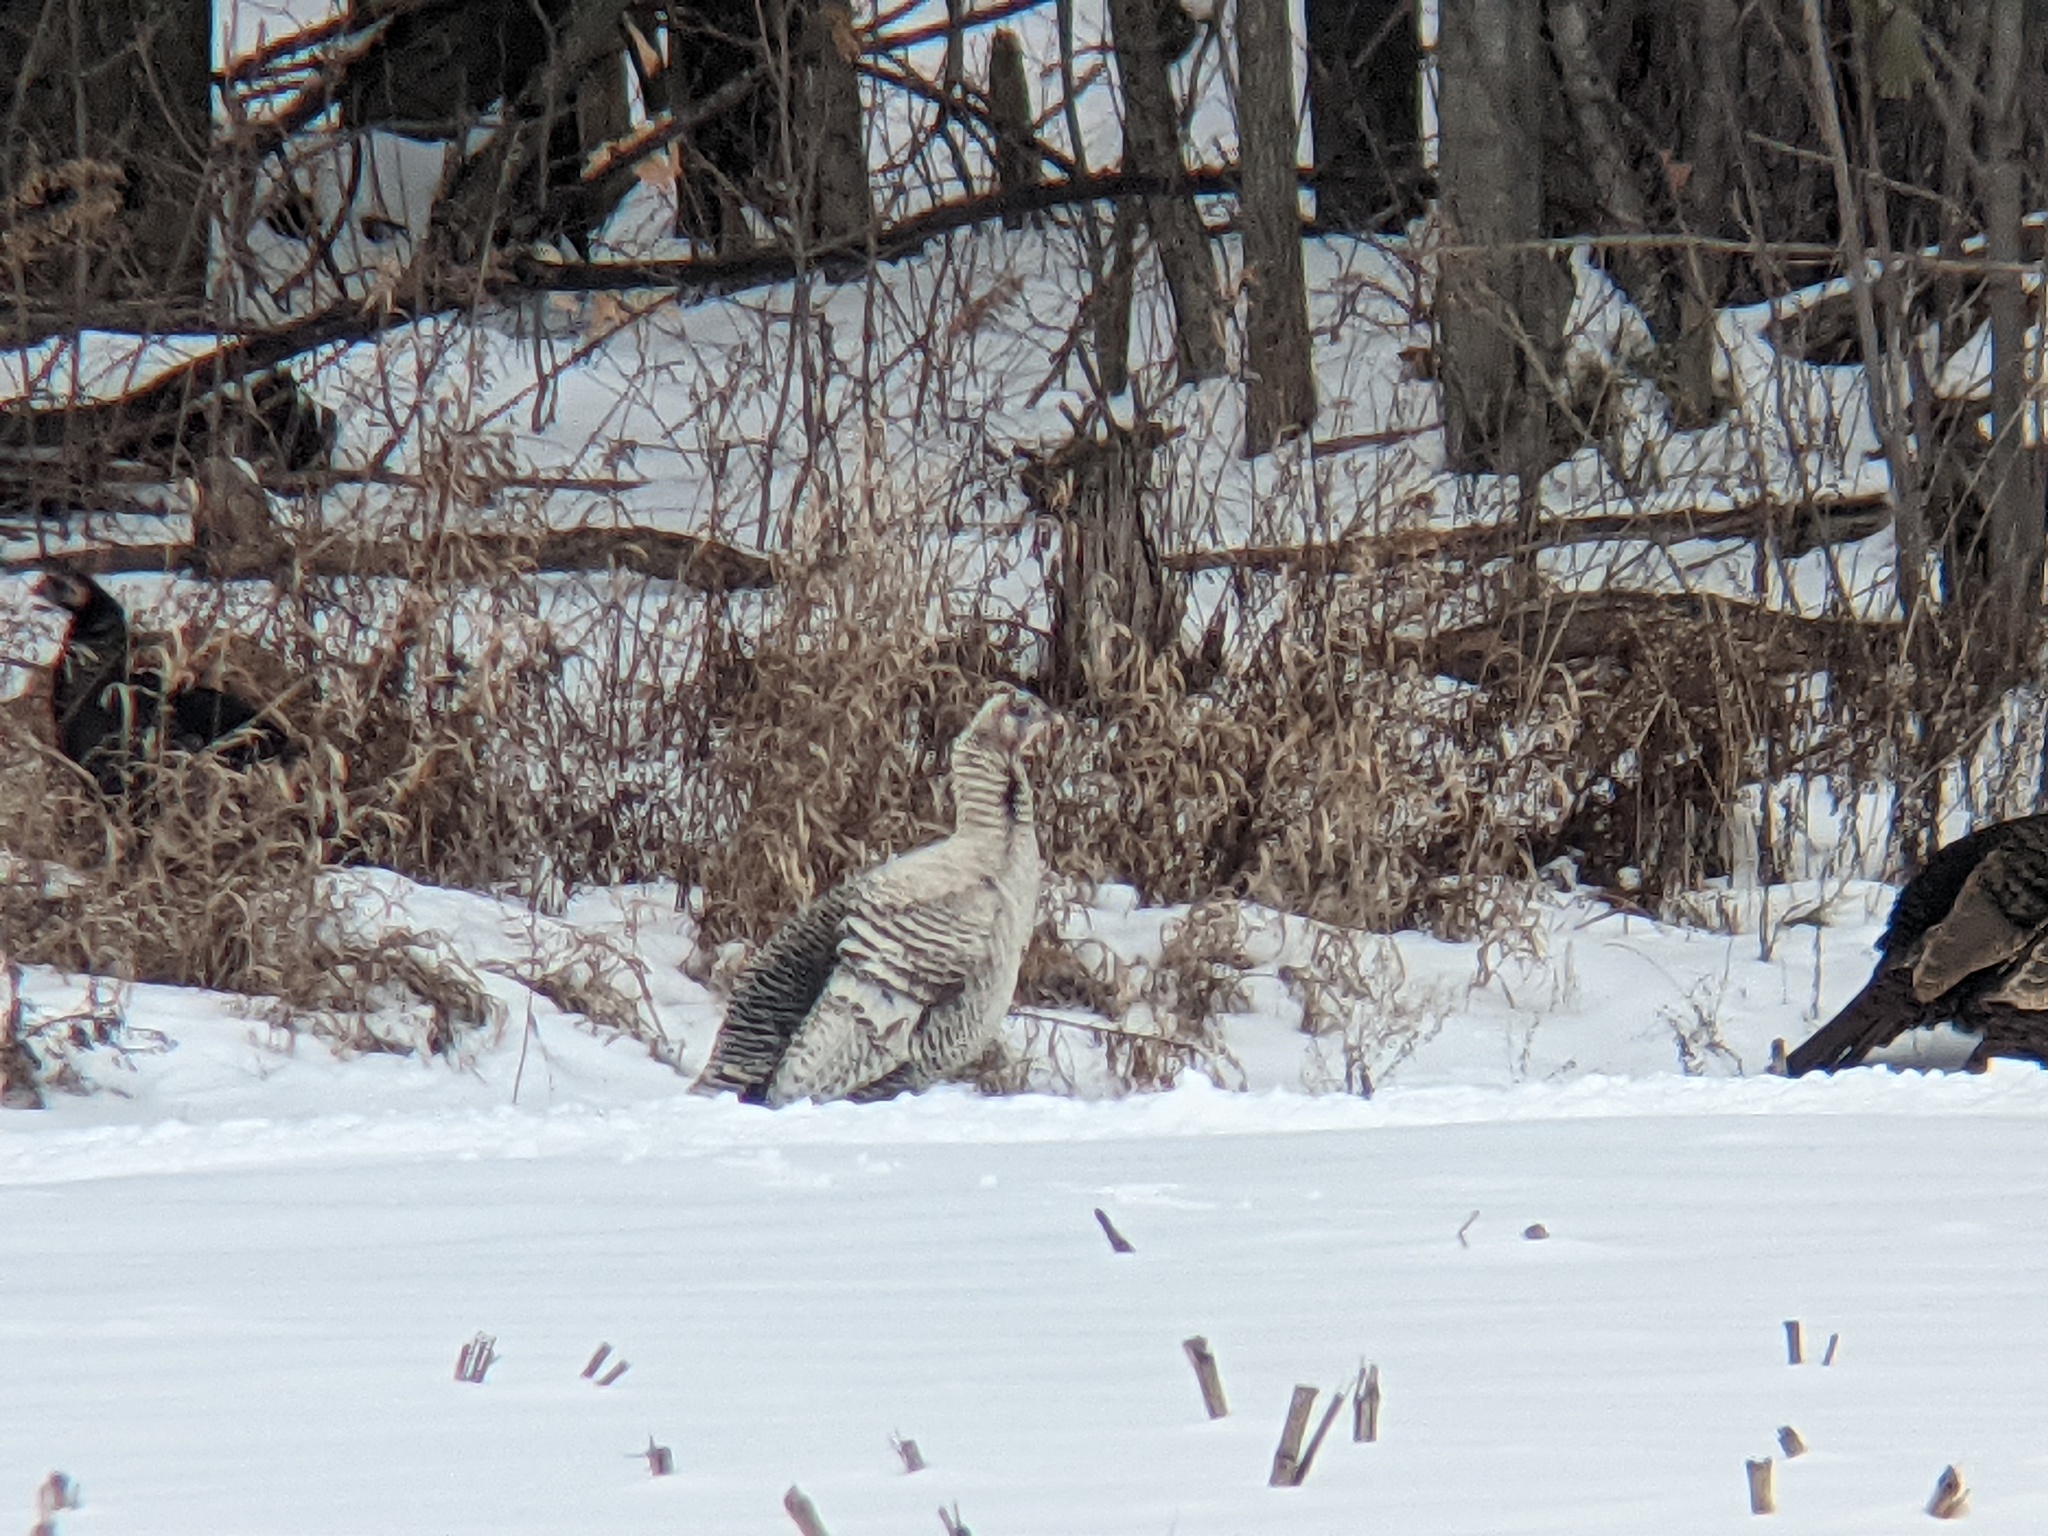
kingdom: Animalia
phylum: Chordata
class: Aves
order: Galliformes
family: Phasianidae
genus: Meleagris
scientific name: Meleagris gallopavo
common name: Wild turkey
